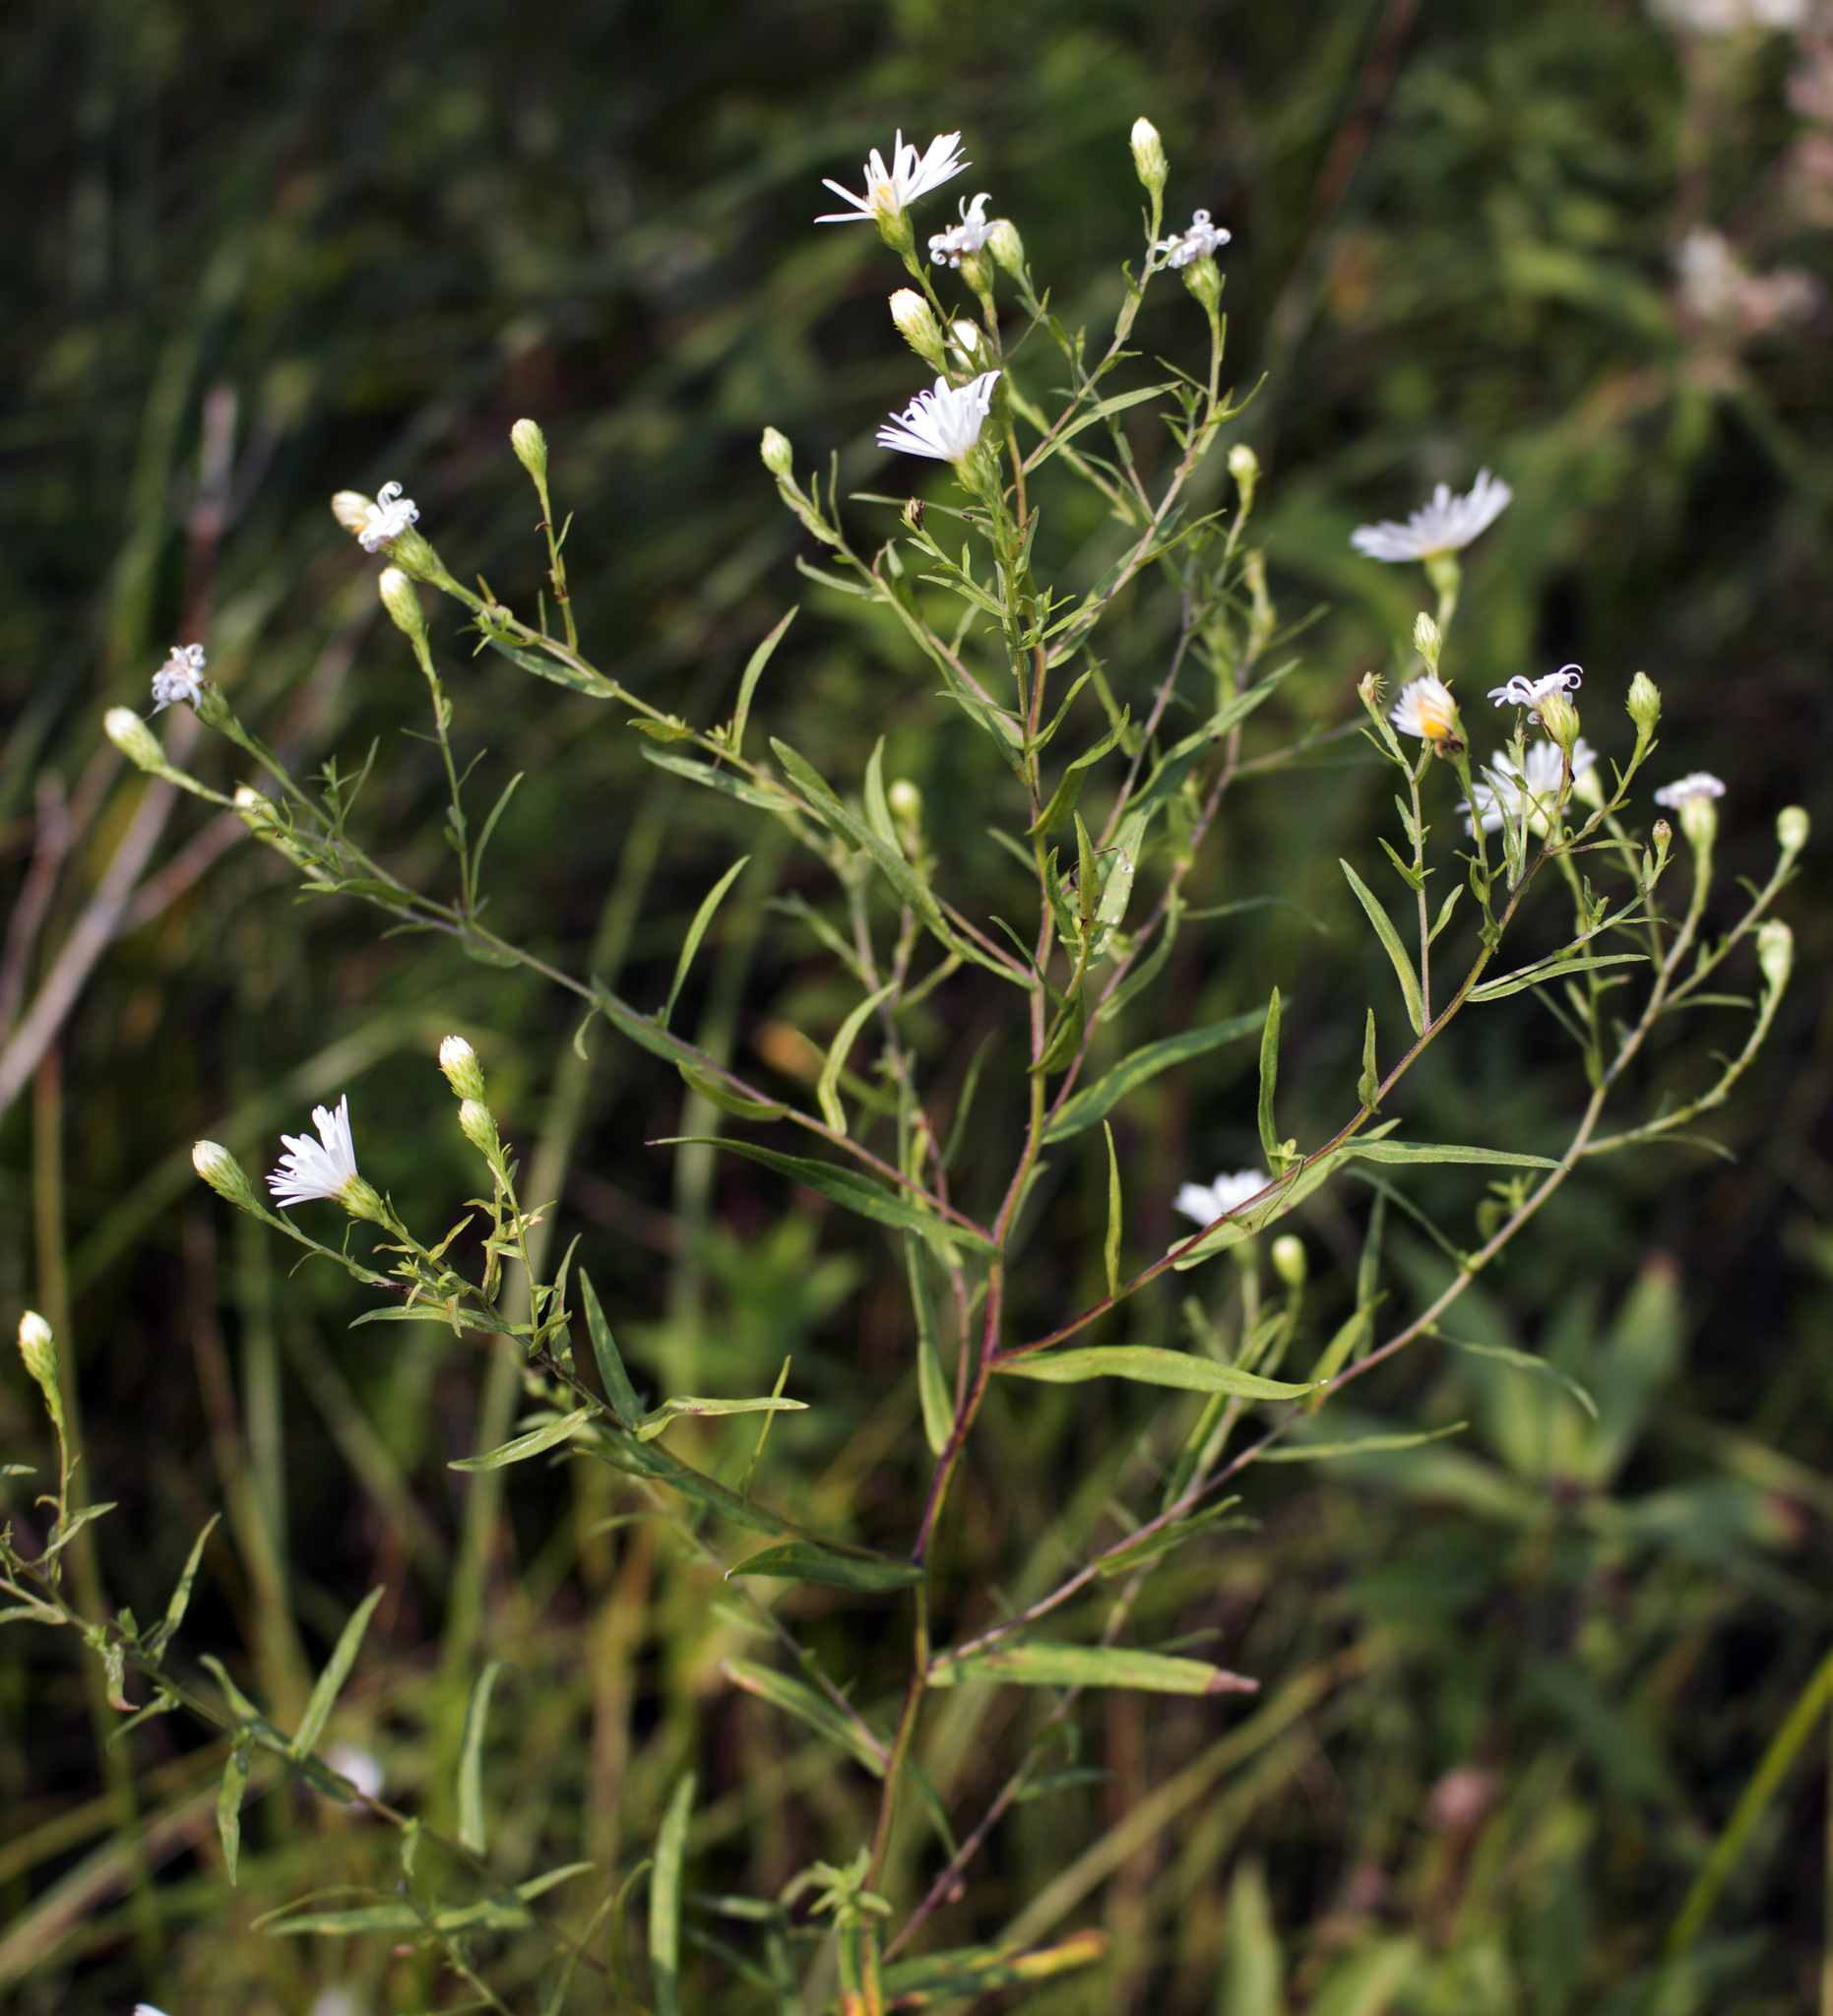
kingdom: Plantae
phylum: Tracheophyta
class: Magnoliopsida
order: Asterales
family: Asteraceae
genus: Symphyotrichum
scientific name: Symphyotrichum boreale
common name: Northern bog aster
